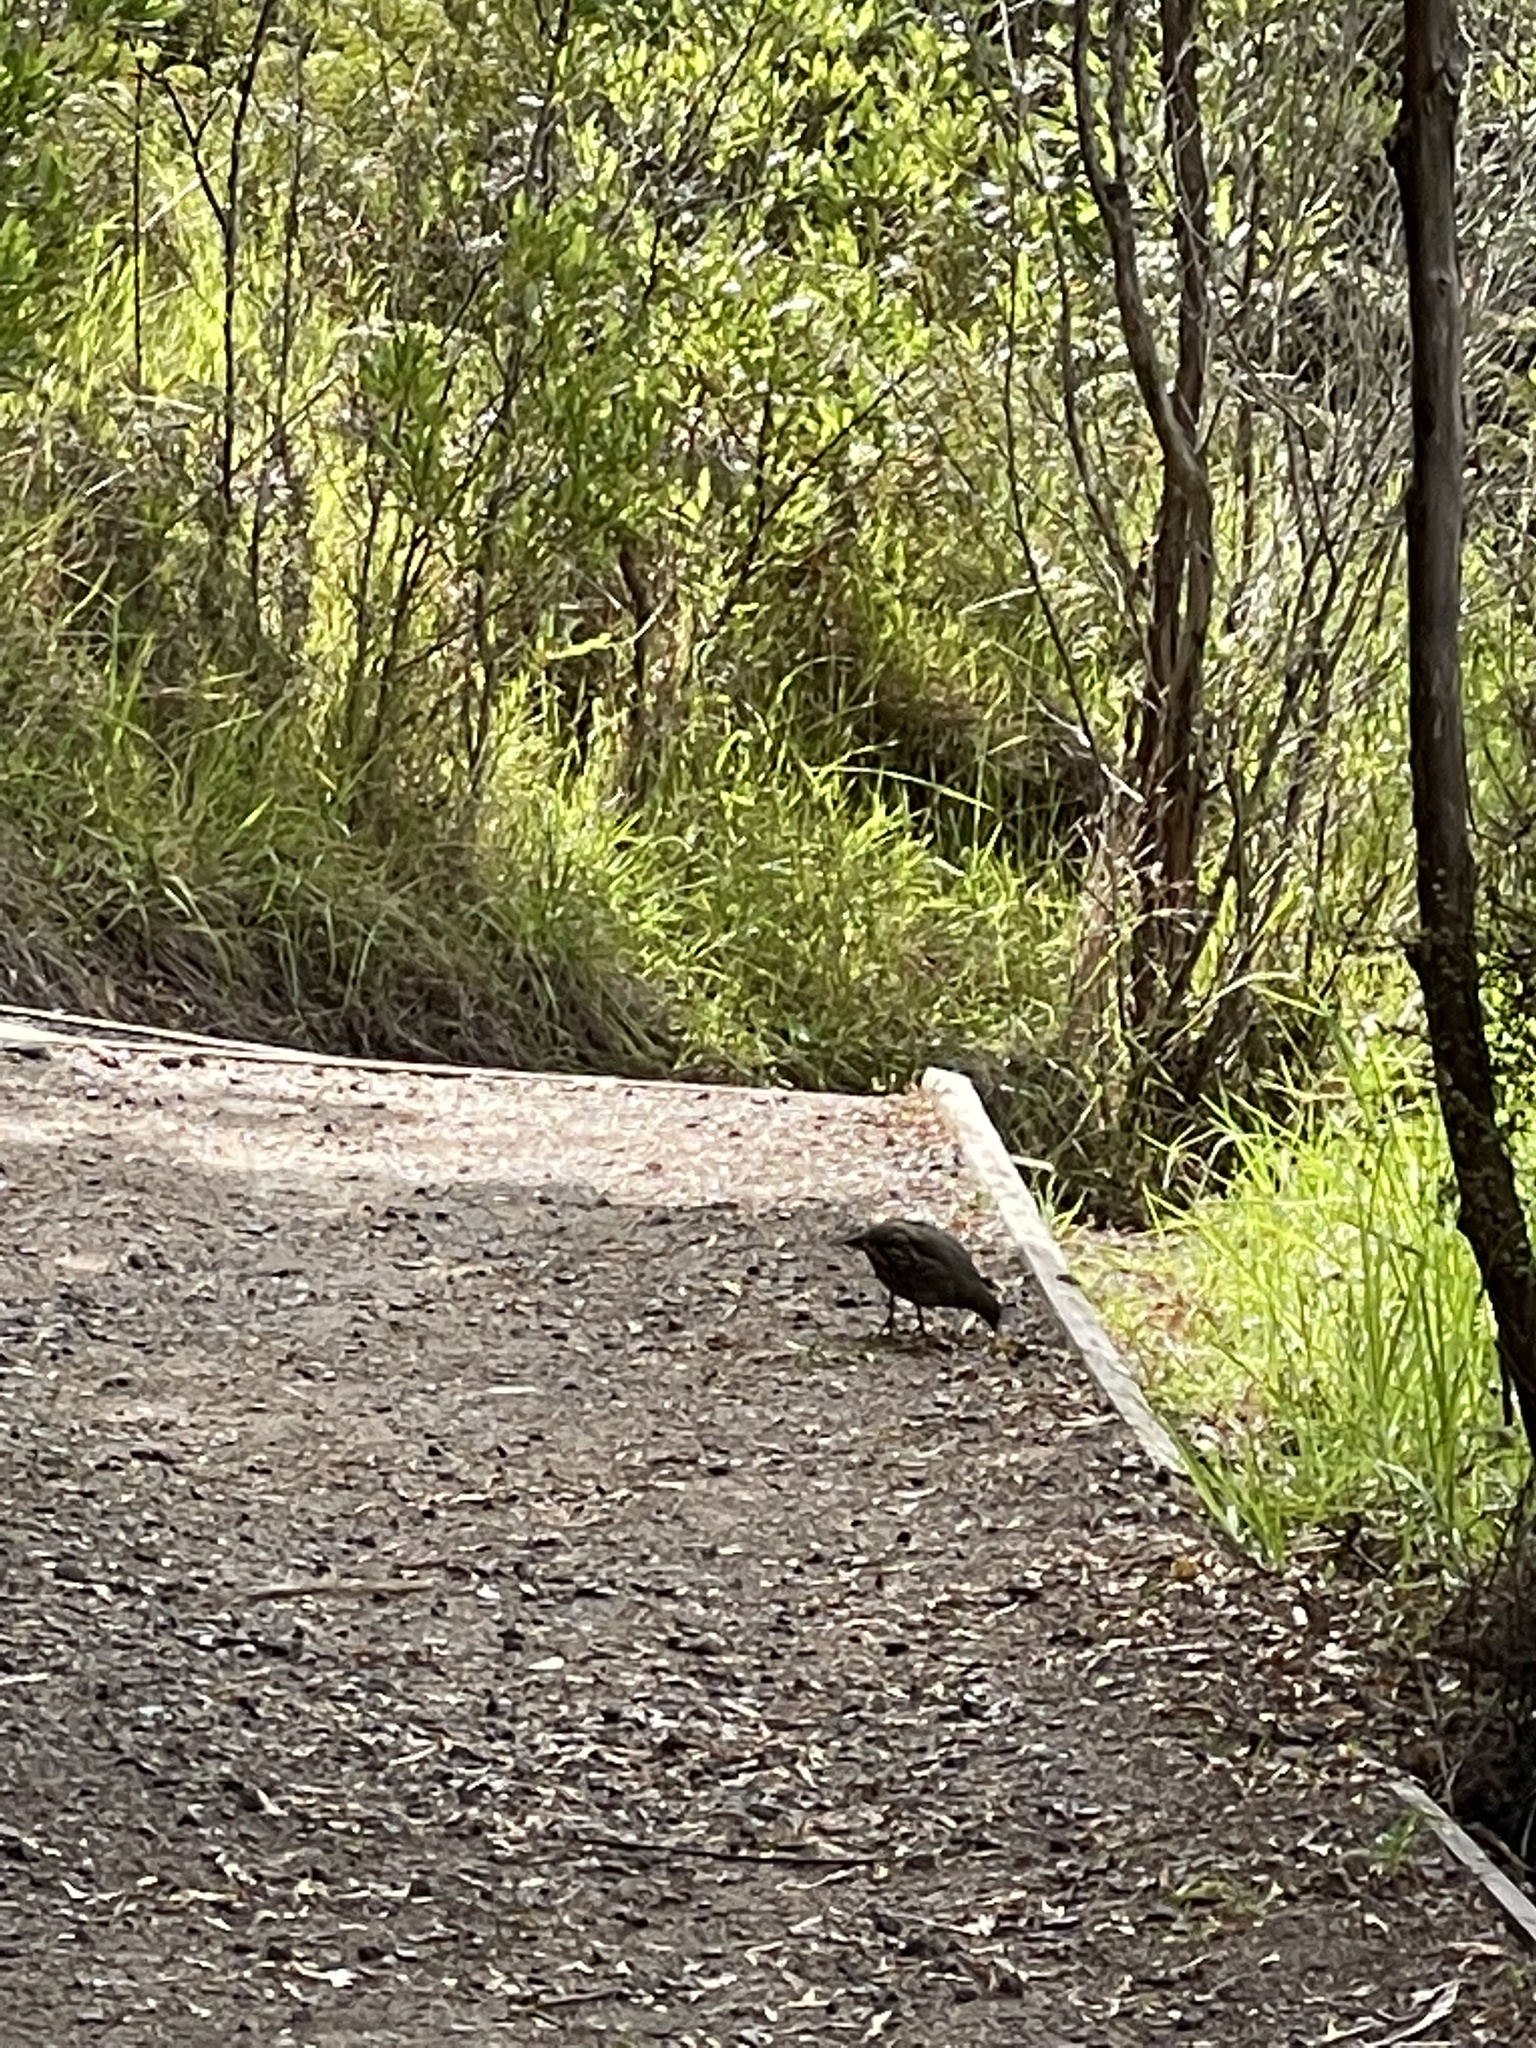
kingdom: Animalia
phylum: Chordata
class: Aves
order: Galliformes
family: Odontophoridae
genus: Callipepla
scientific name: Callipepla californica
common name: California quail
